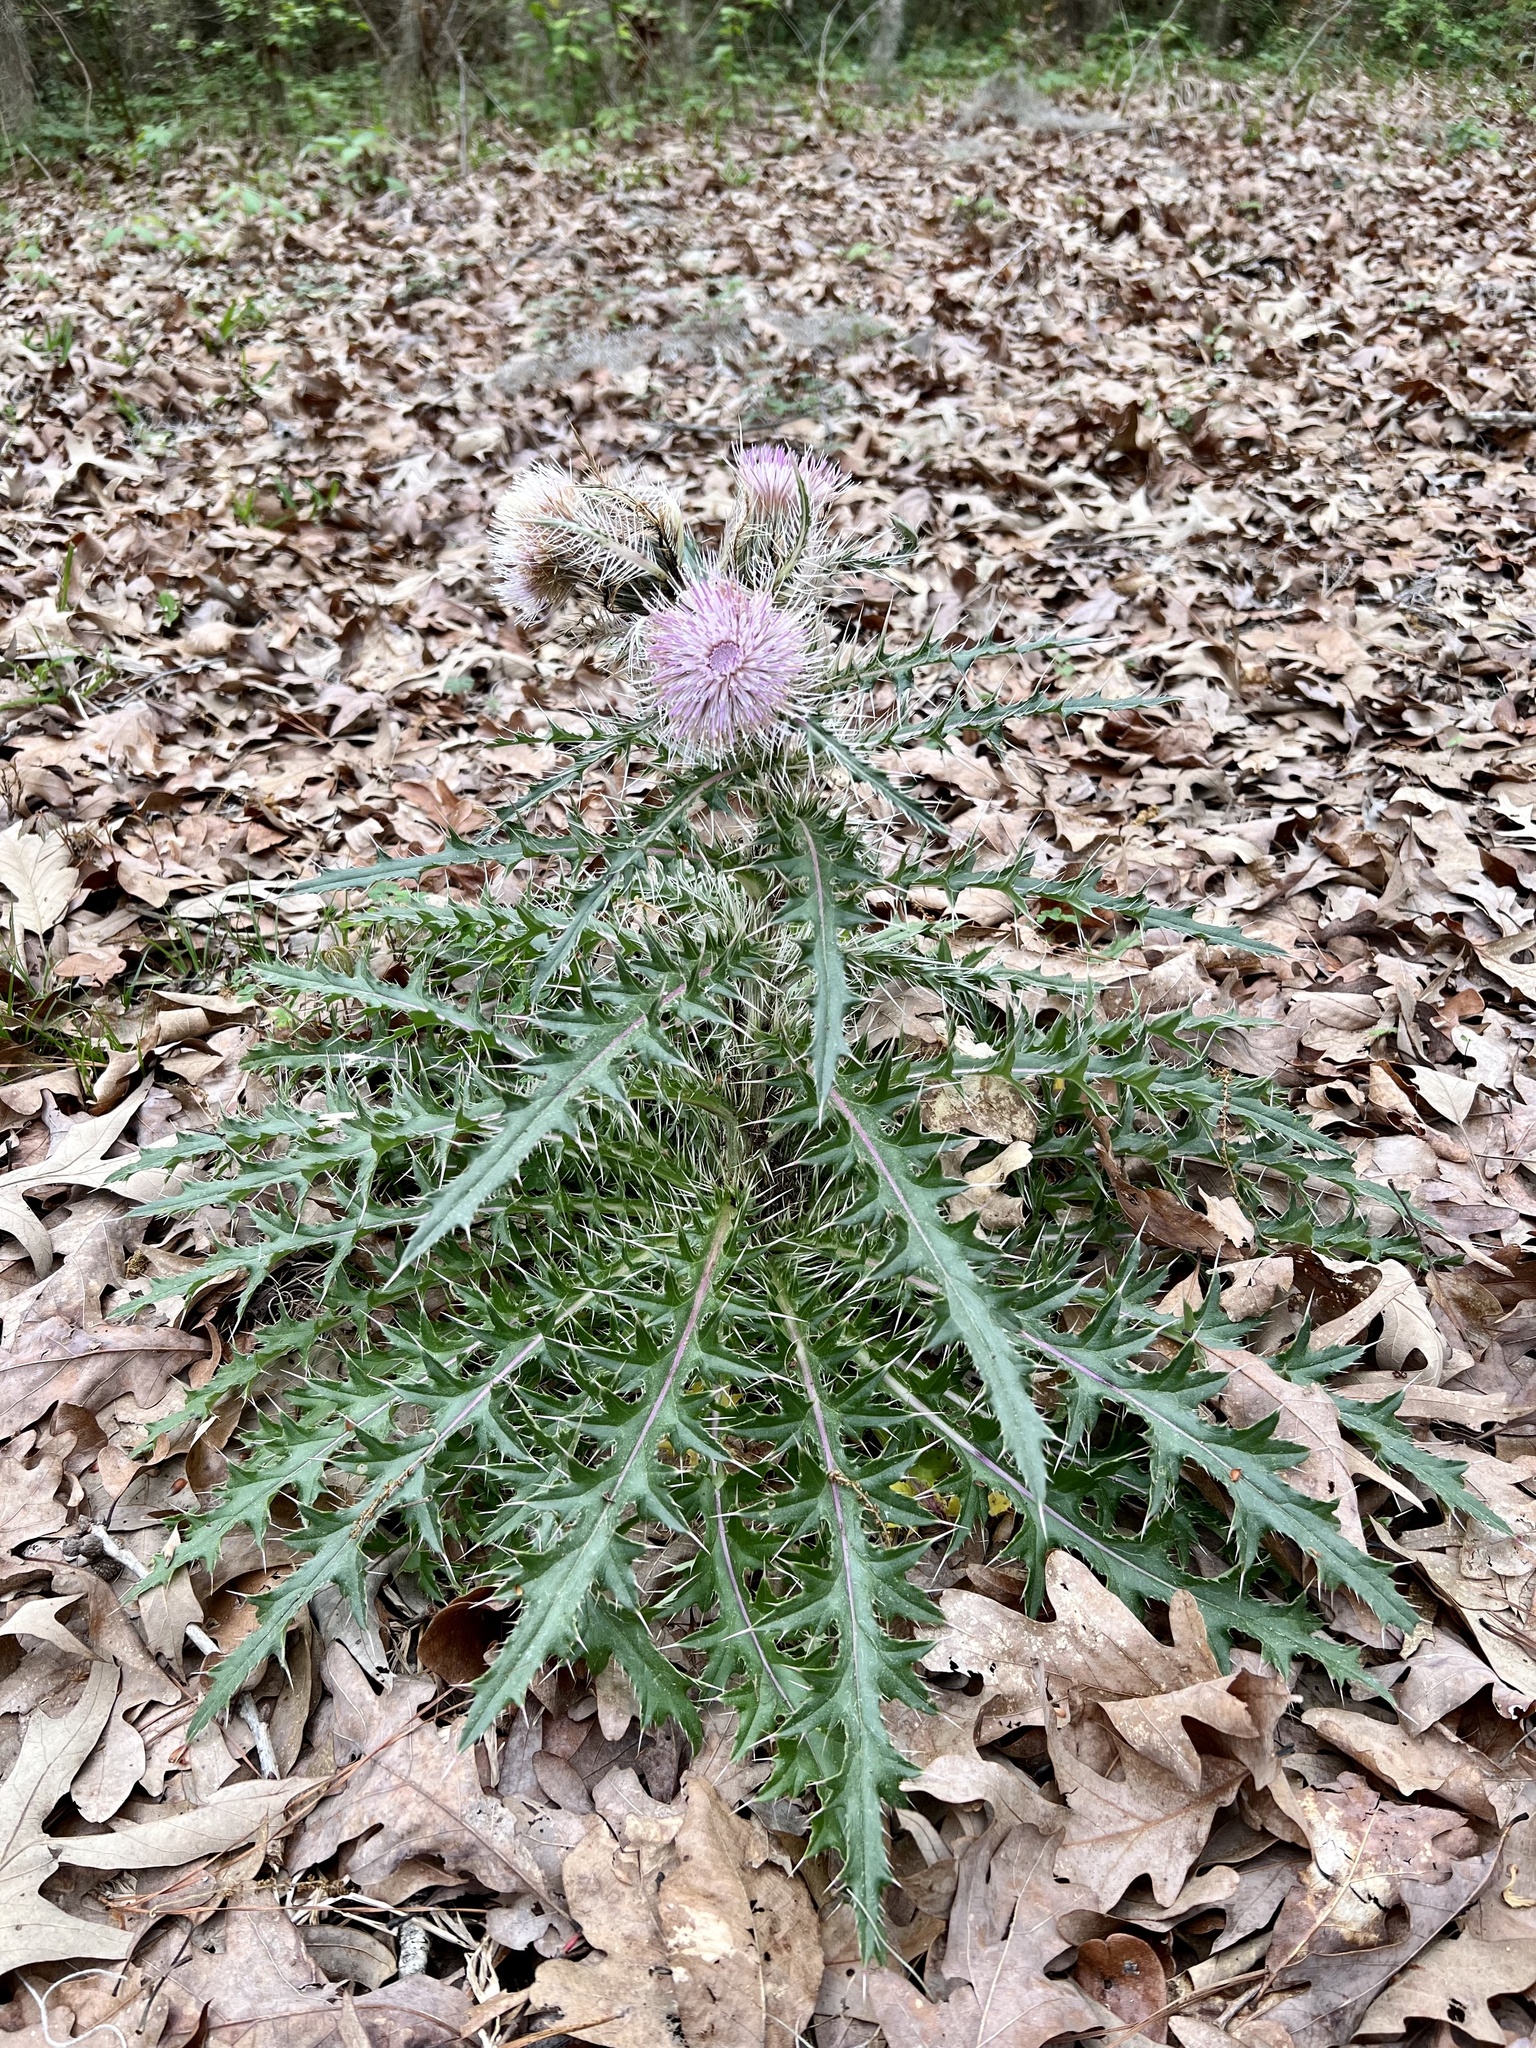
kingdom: Plantae
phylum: Tracheophyta
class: Magnoliopsida
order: Asterales
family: Asteraceae
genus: Cirsium
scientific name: Cirsium horridulum
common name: Bristly thistle
